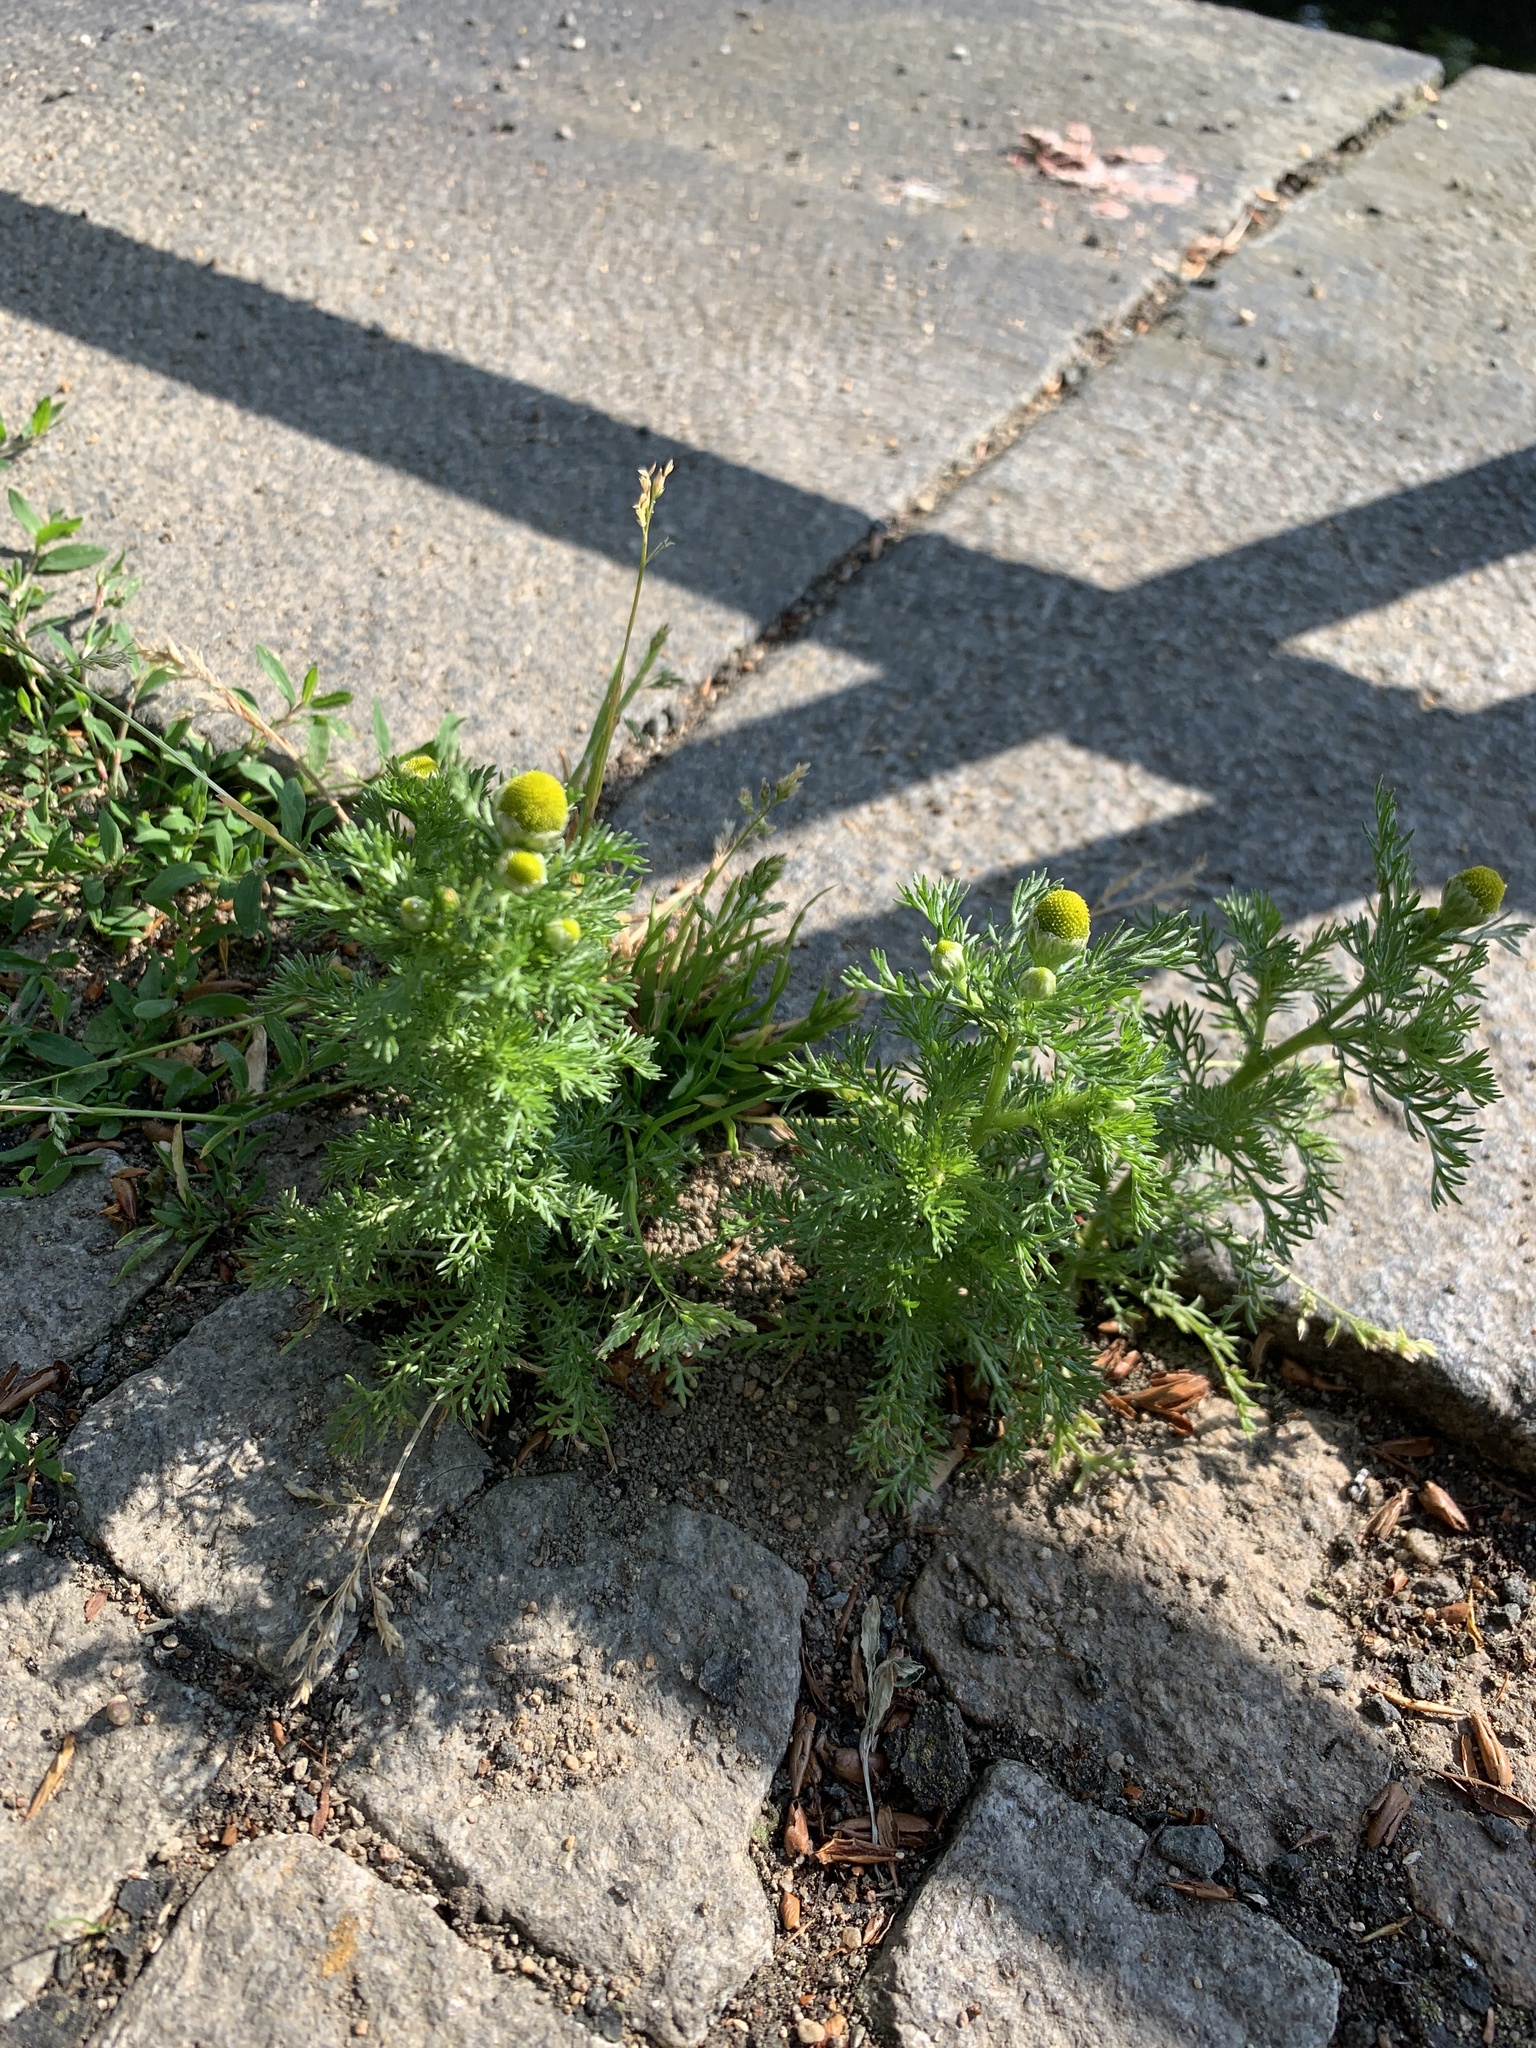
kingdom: Plantae
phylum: Tracheophyta
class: Magnoliopsida
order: Asterales
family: Asteraceae
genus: Matricaria
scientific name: Matricaria discoidea
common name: Disc mayweed
